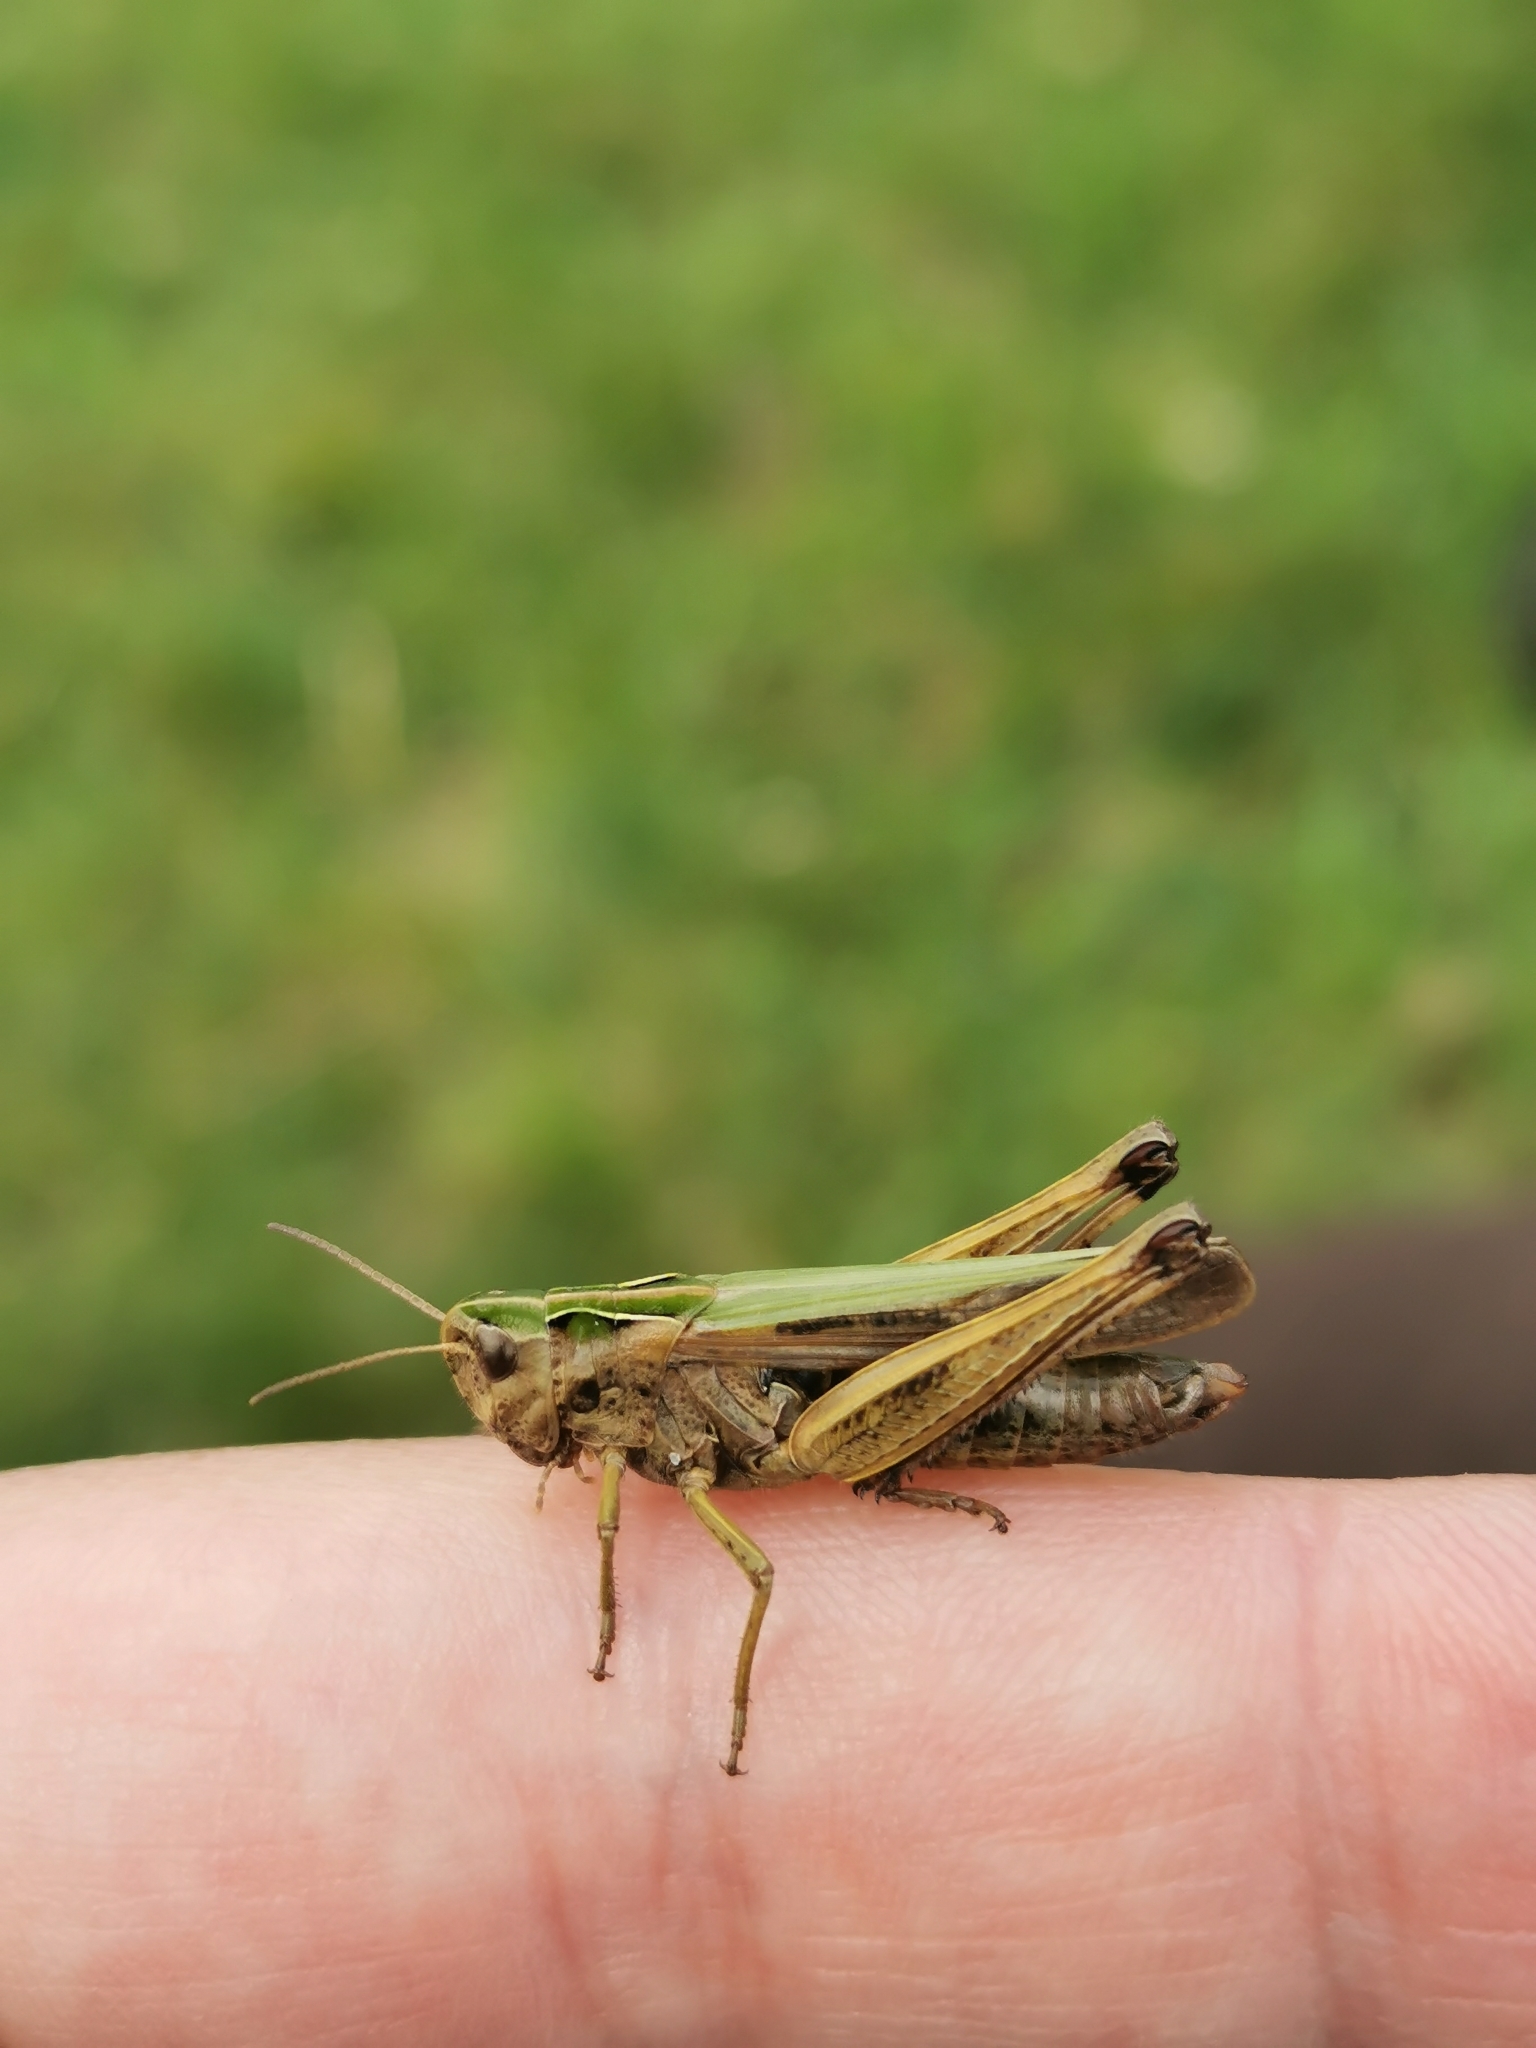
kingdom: Animalia
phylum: Arthropoda
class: Insecta
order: Orthoptera
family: Acrididae
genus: Omocestus
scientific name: Omocestus viridulus
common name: Common green grasshopper
